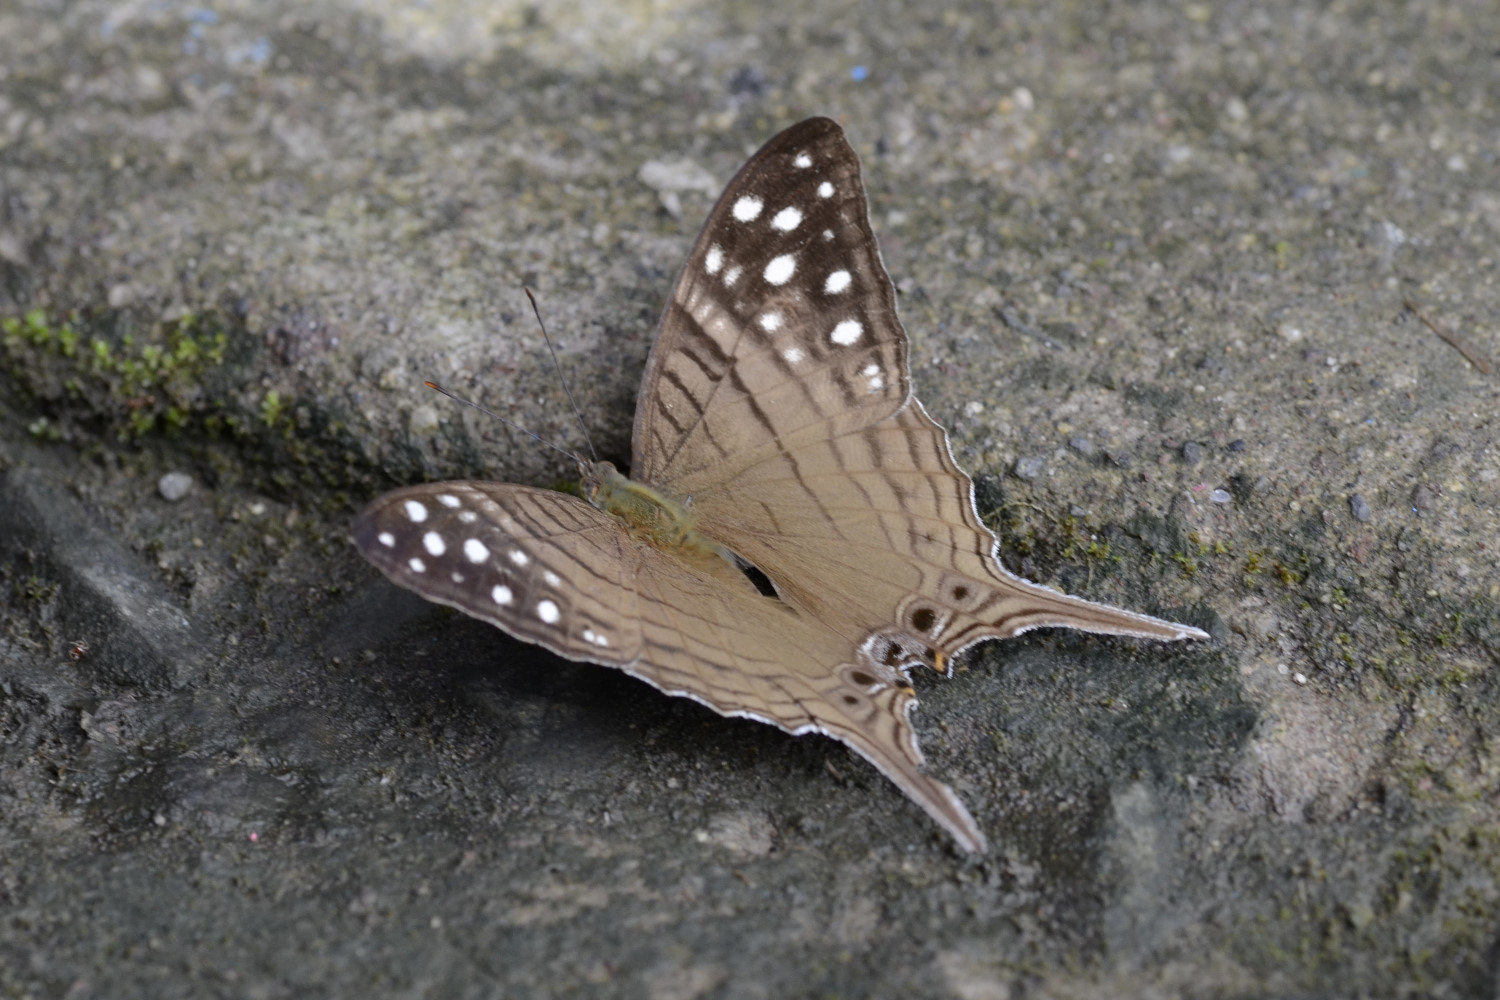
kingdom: Animalia
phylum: Arthropoda
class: Insecta
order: Lepidoptera
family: Nymphalidae
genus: Marpesia
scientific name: Marpesia merops
